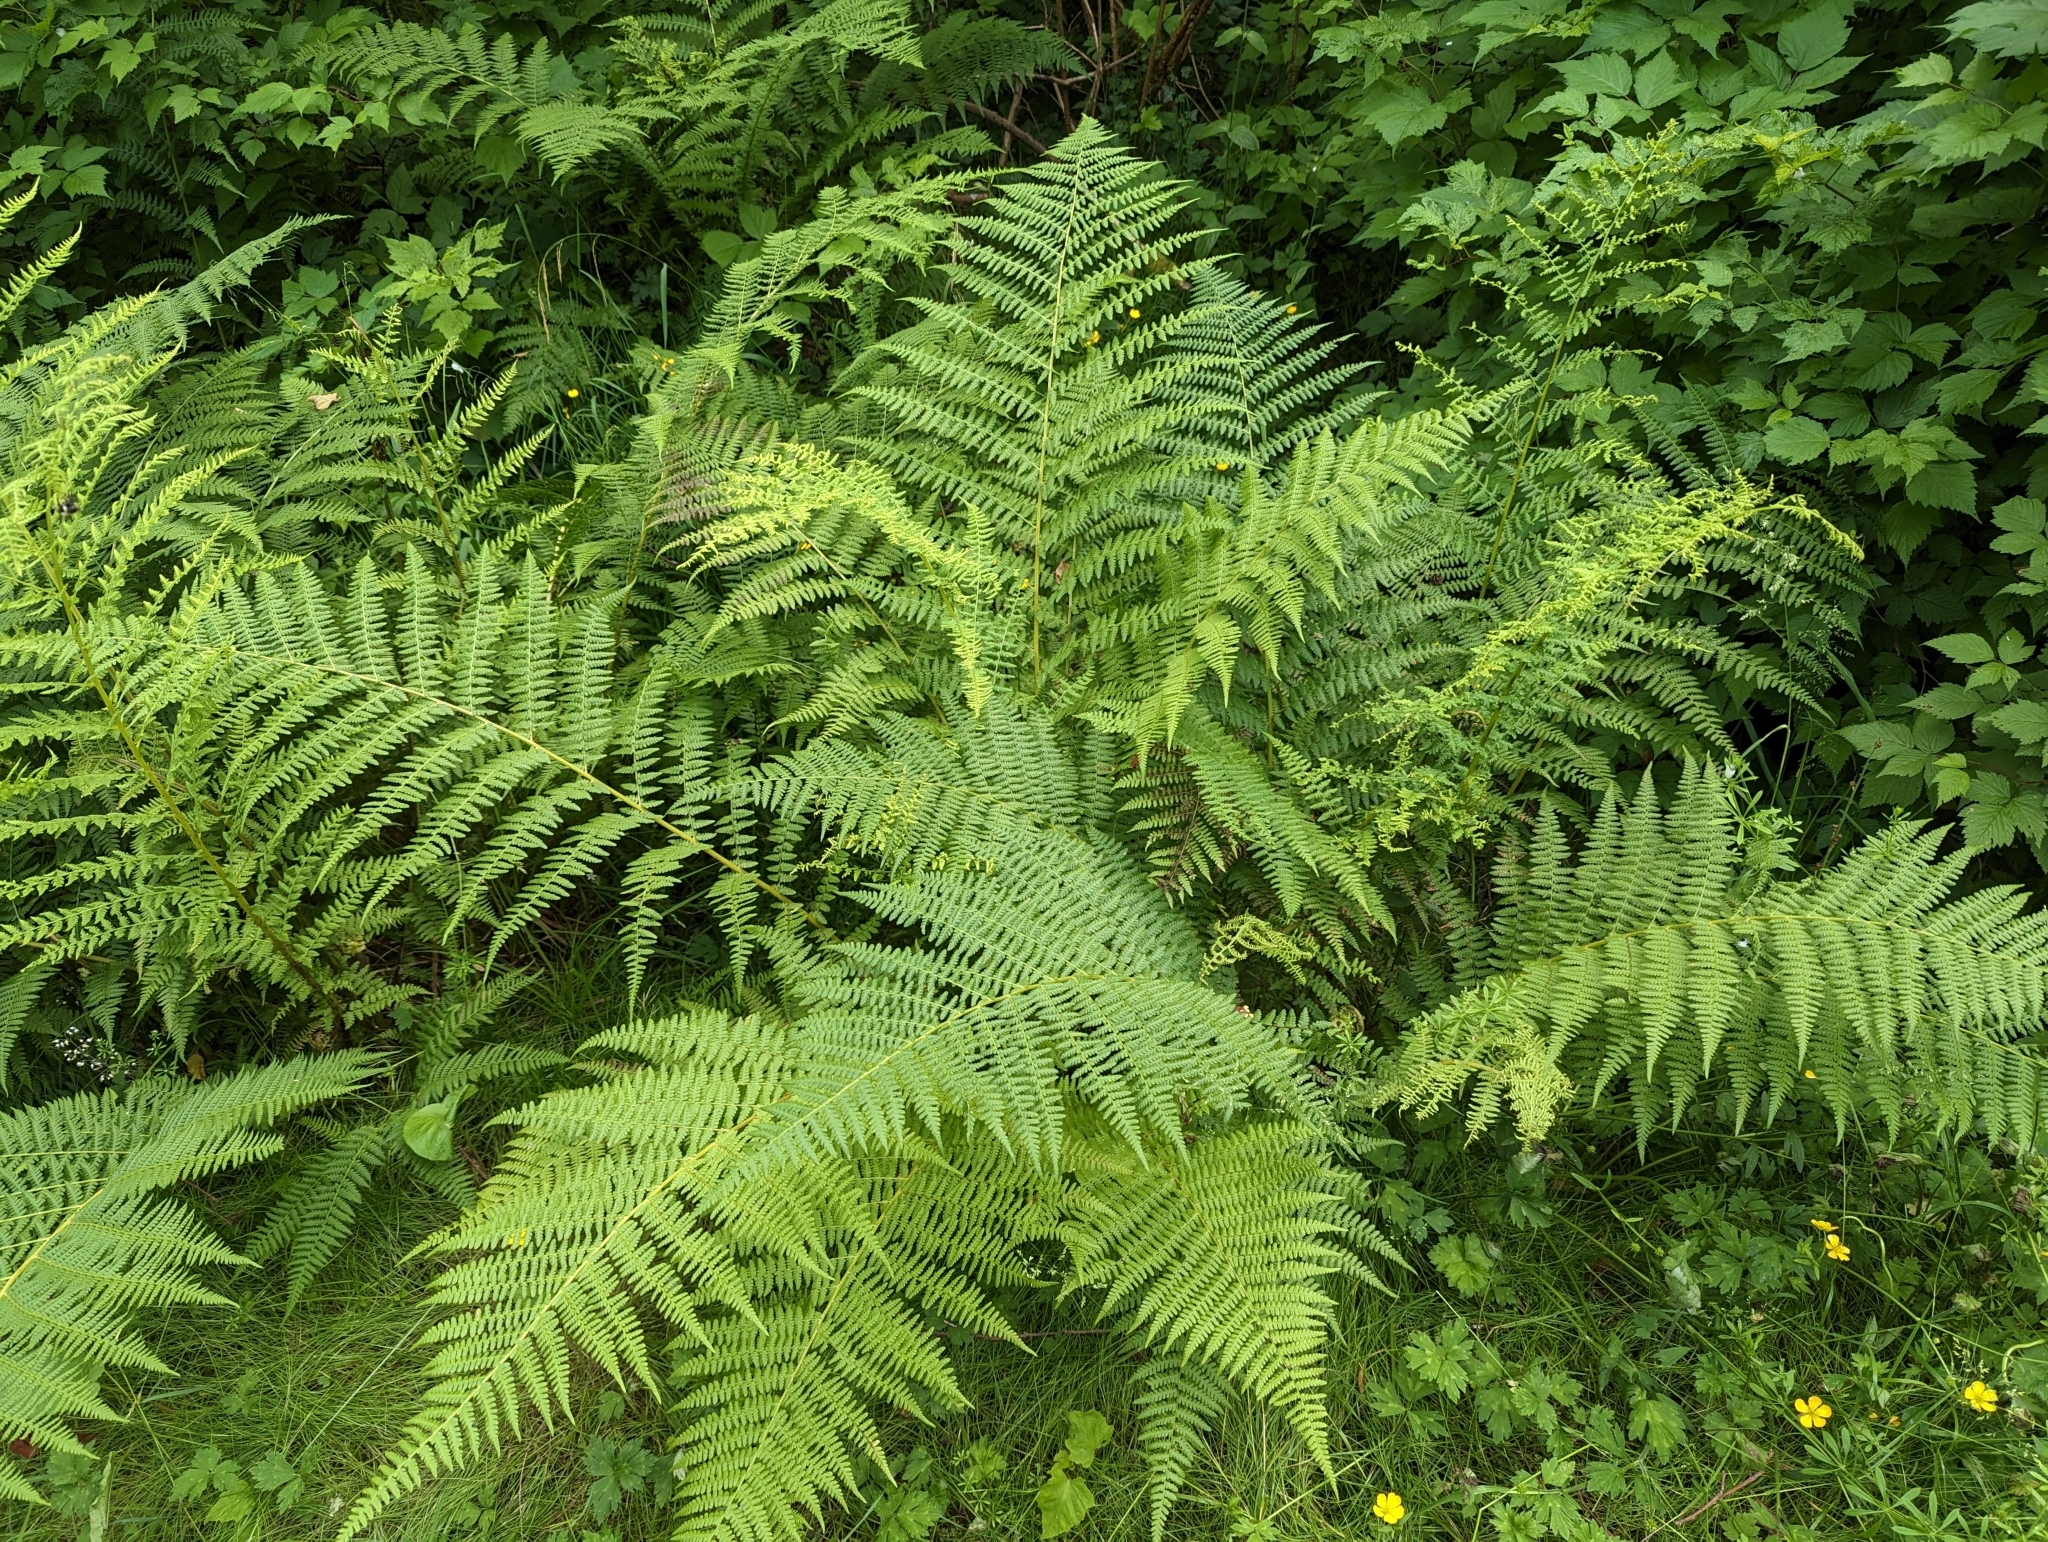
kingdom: Plantae
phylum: Tracheophyta
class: Polypodiopsida
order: Polypodiales
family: Athyriaceae
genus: Athyrium
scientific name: Athyrium filix-femina
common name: Lady fern
